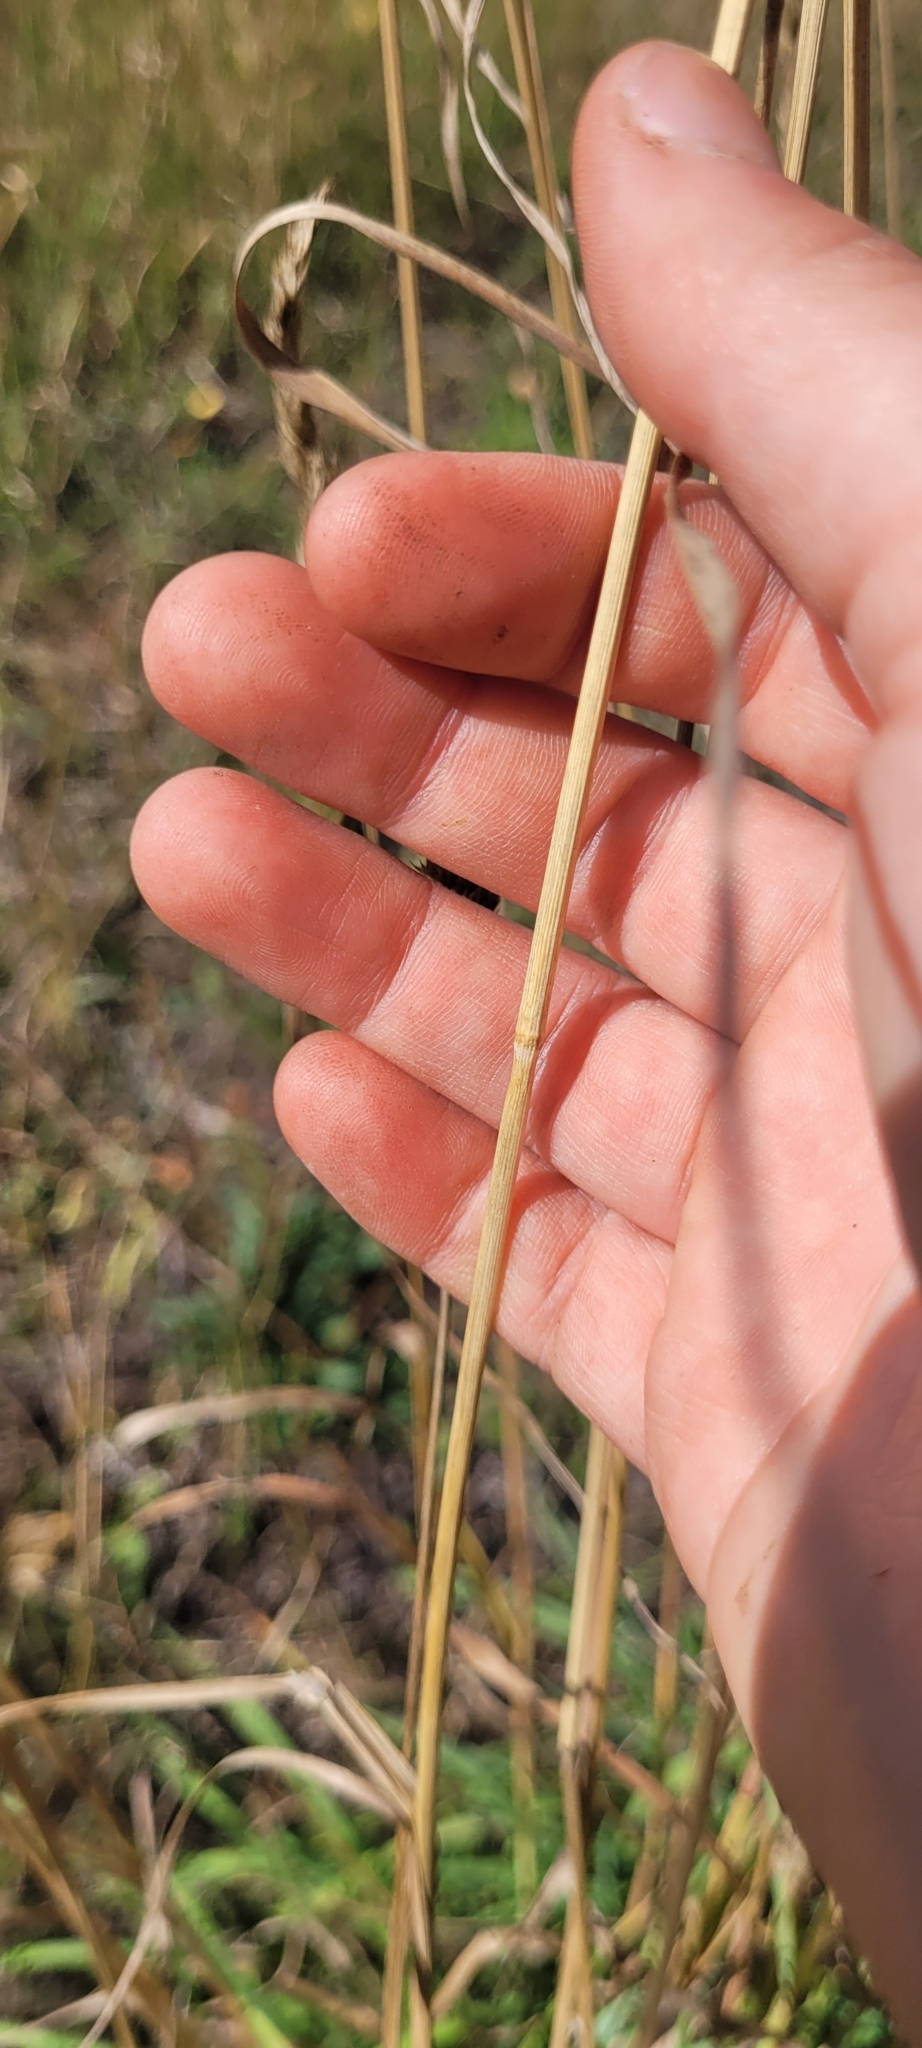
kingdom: Plantae
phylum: Tracheophyta
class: Liliopsida
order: Poales
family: Poaceae
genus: Dactylis
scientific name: Dactylis glomerata
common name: Orchardgrass
